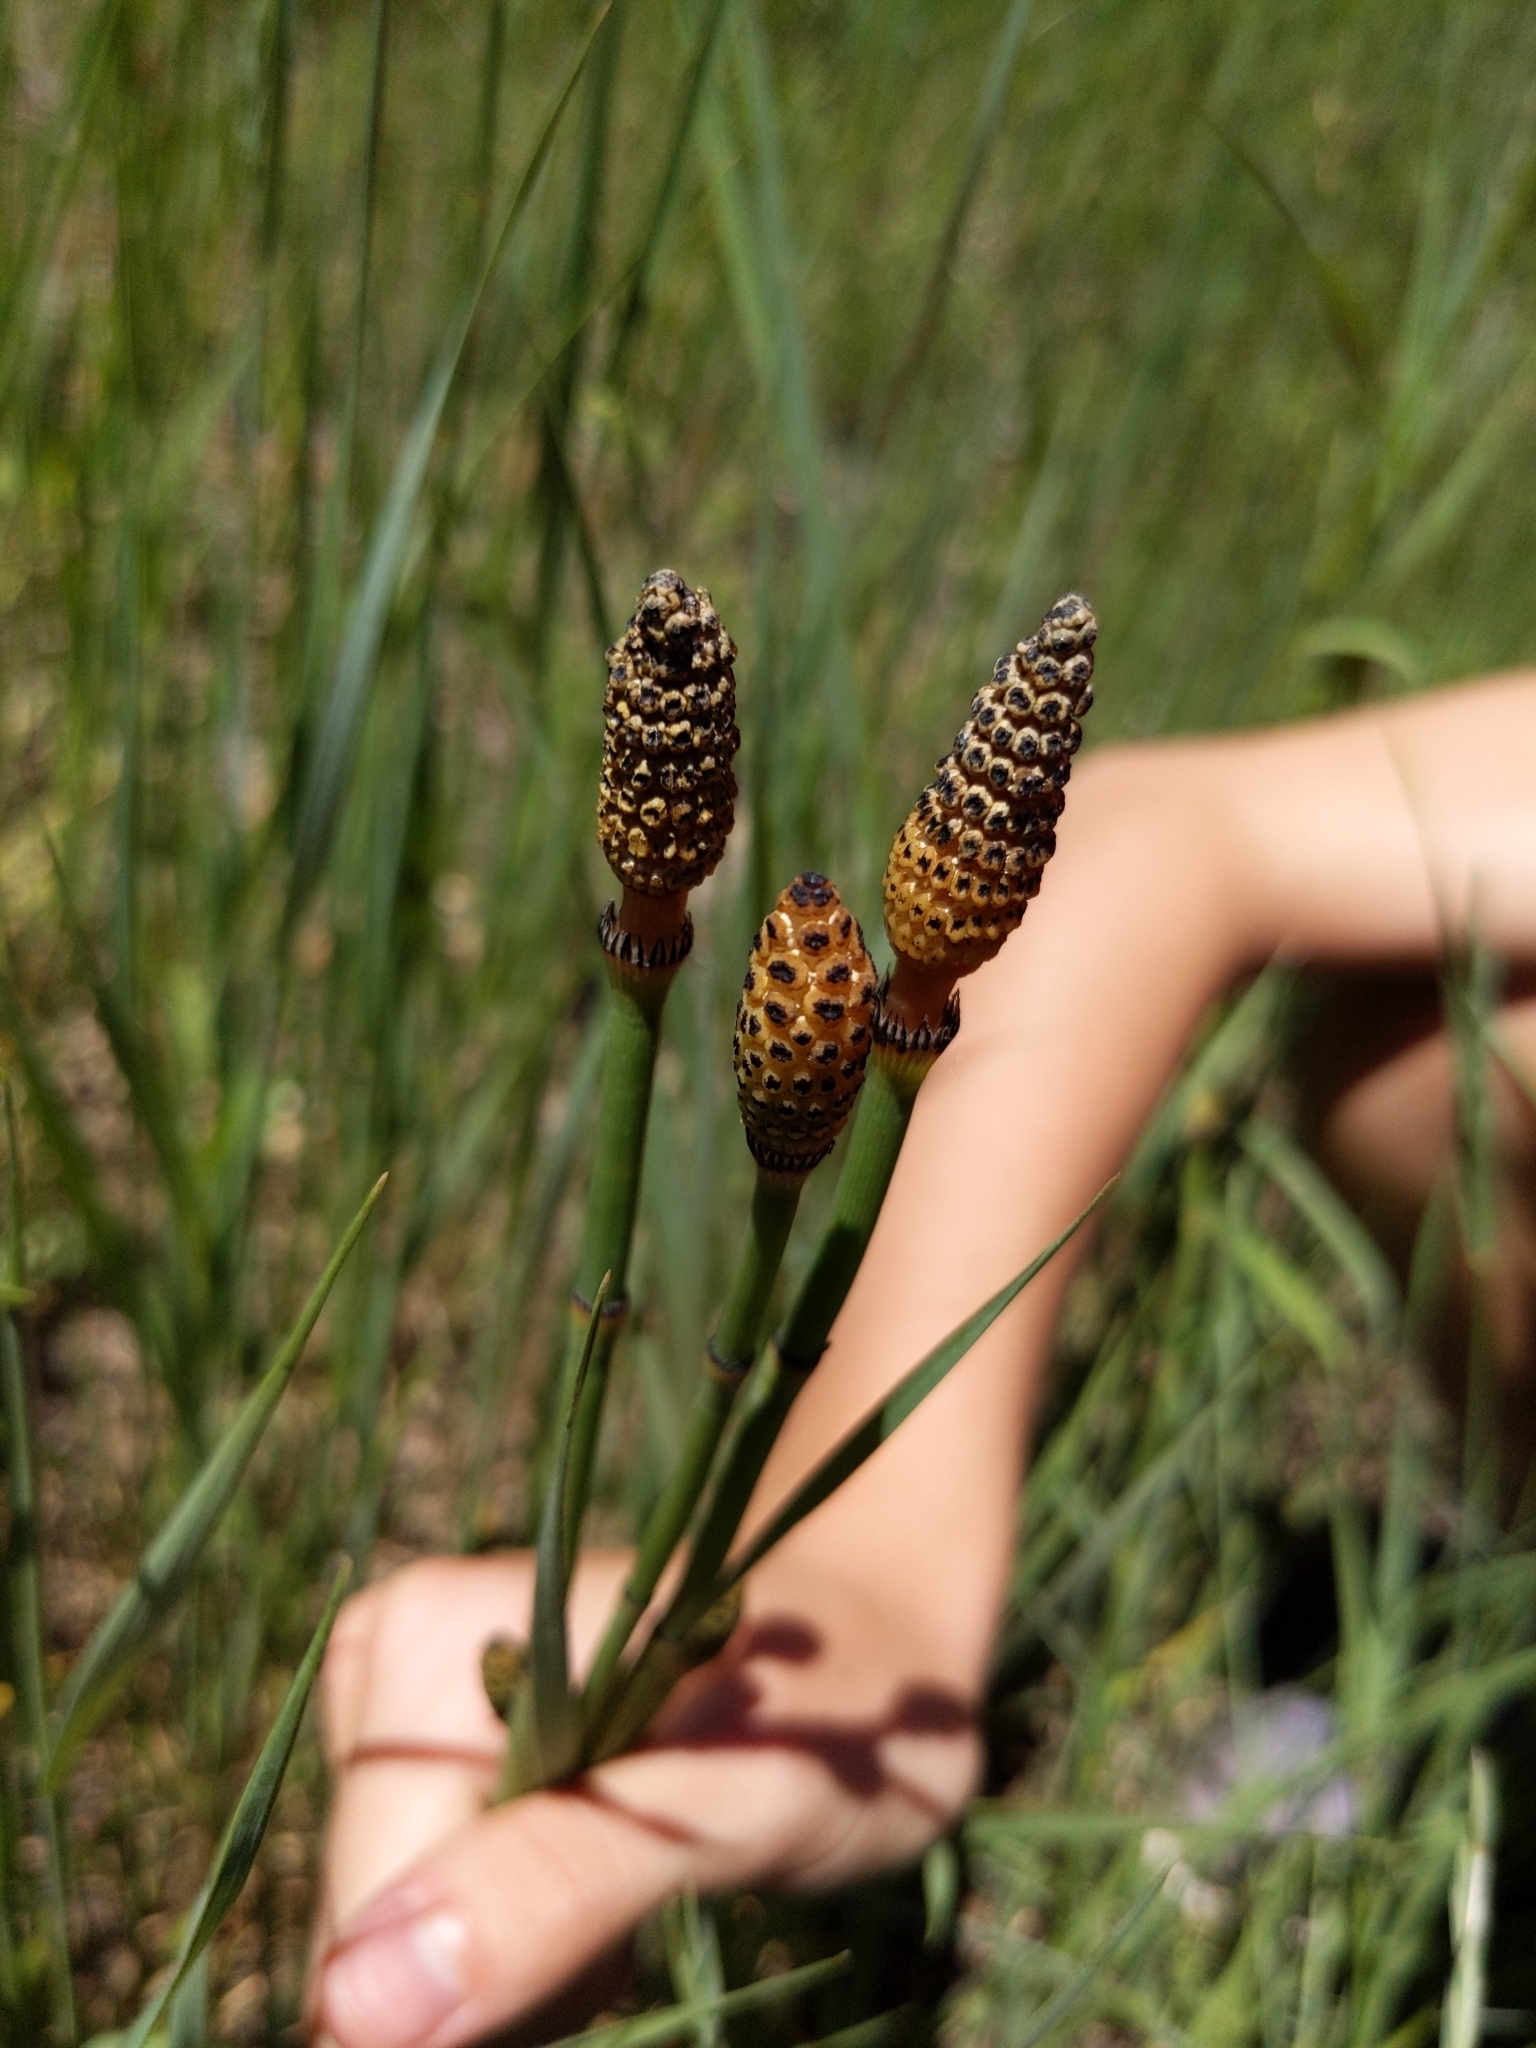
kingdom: Plantae
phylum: Tracheophyta
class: Polypodiopsida
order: Equisetales
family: Equisetaceae
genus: Equisetum
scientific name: Equisetum laevigatum
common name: Smooth scouring-rush
